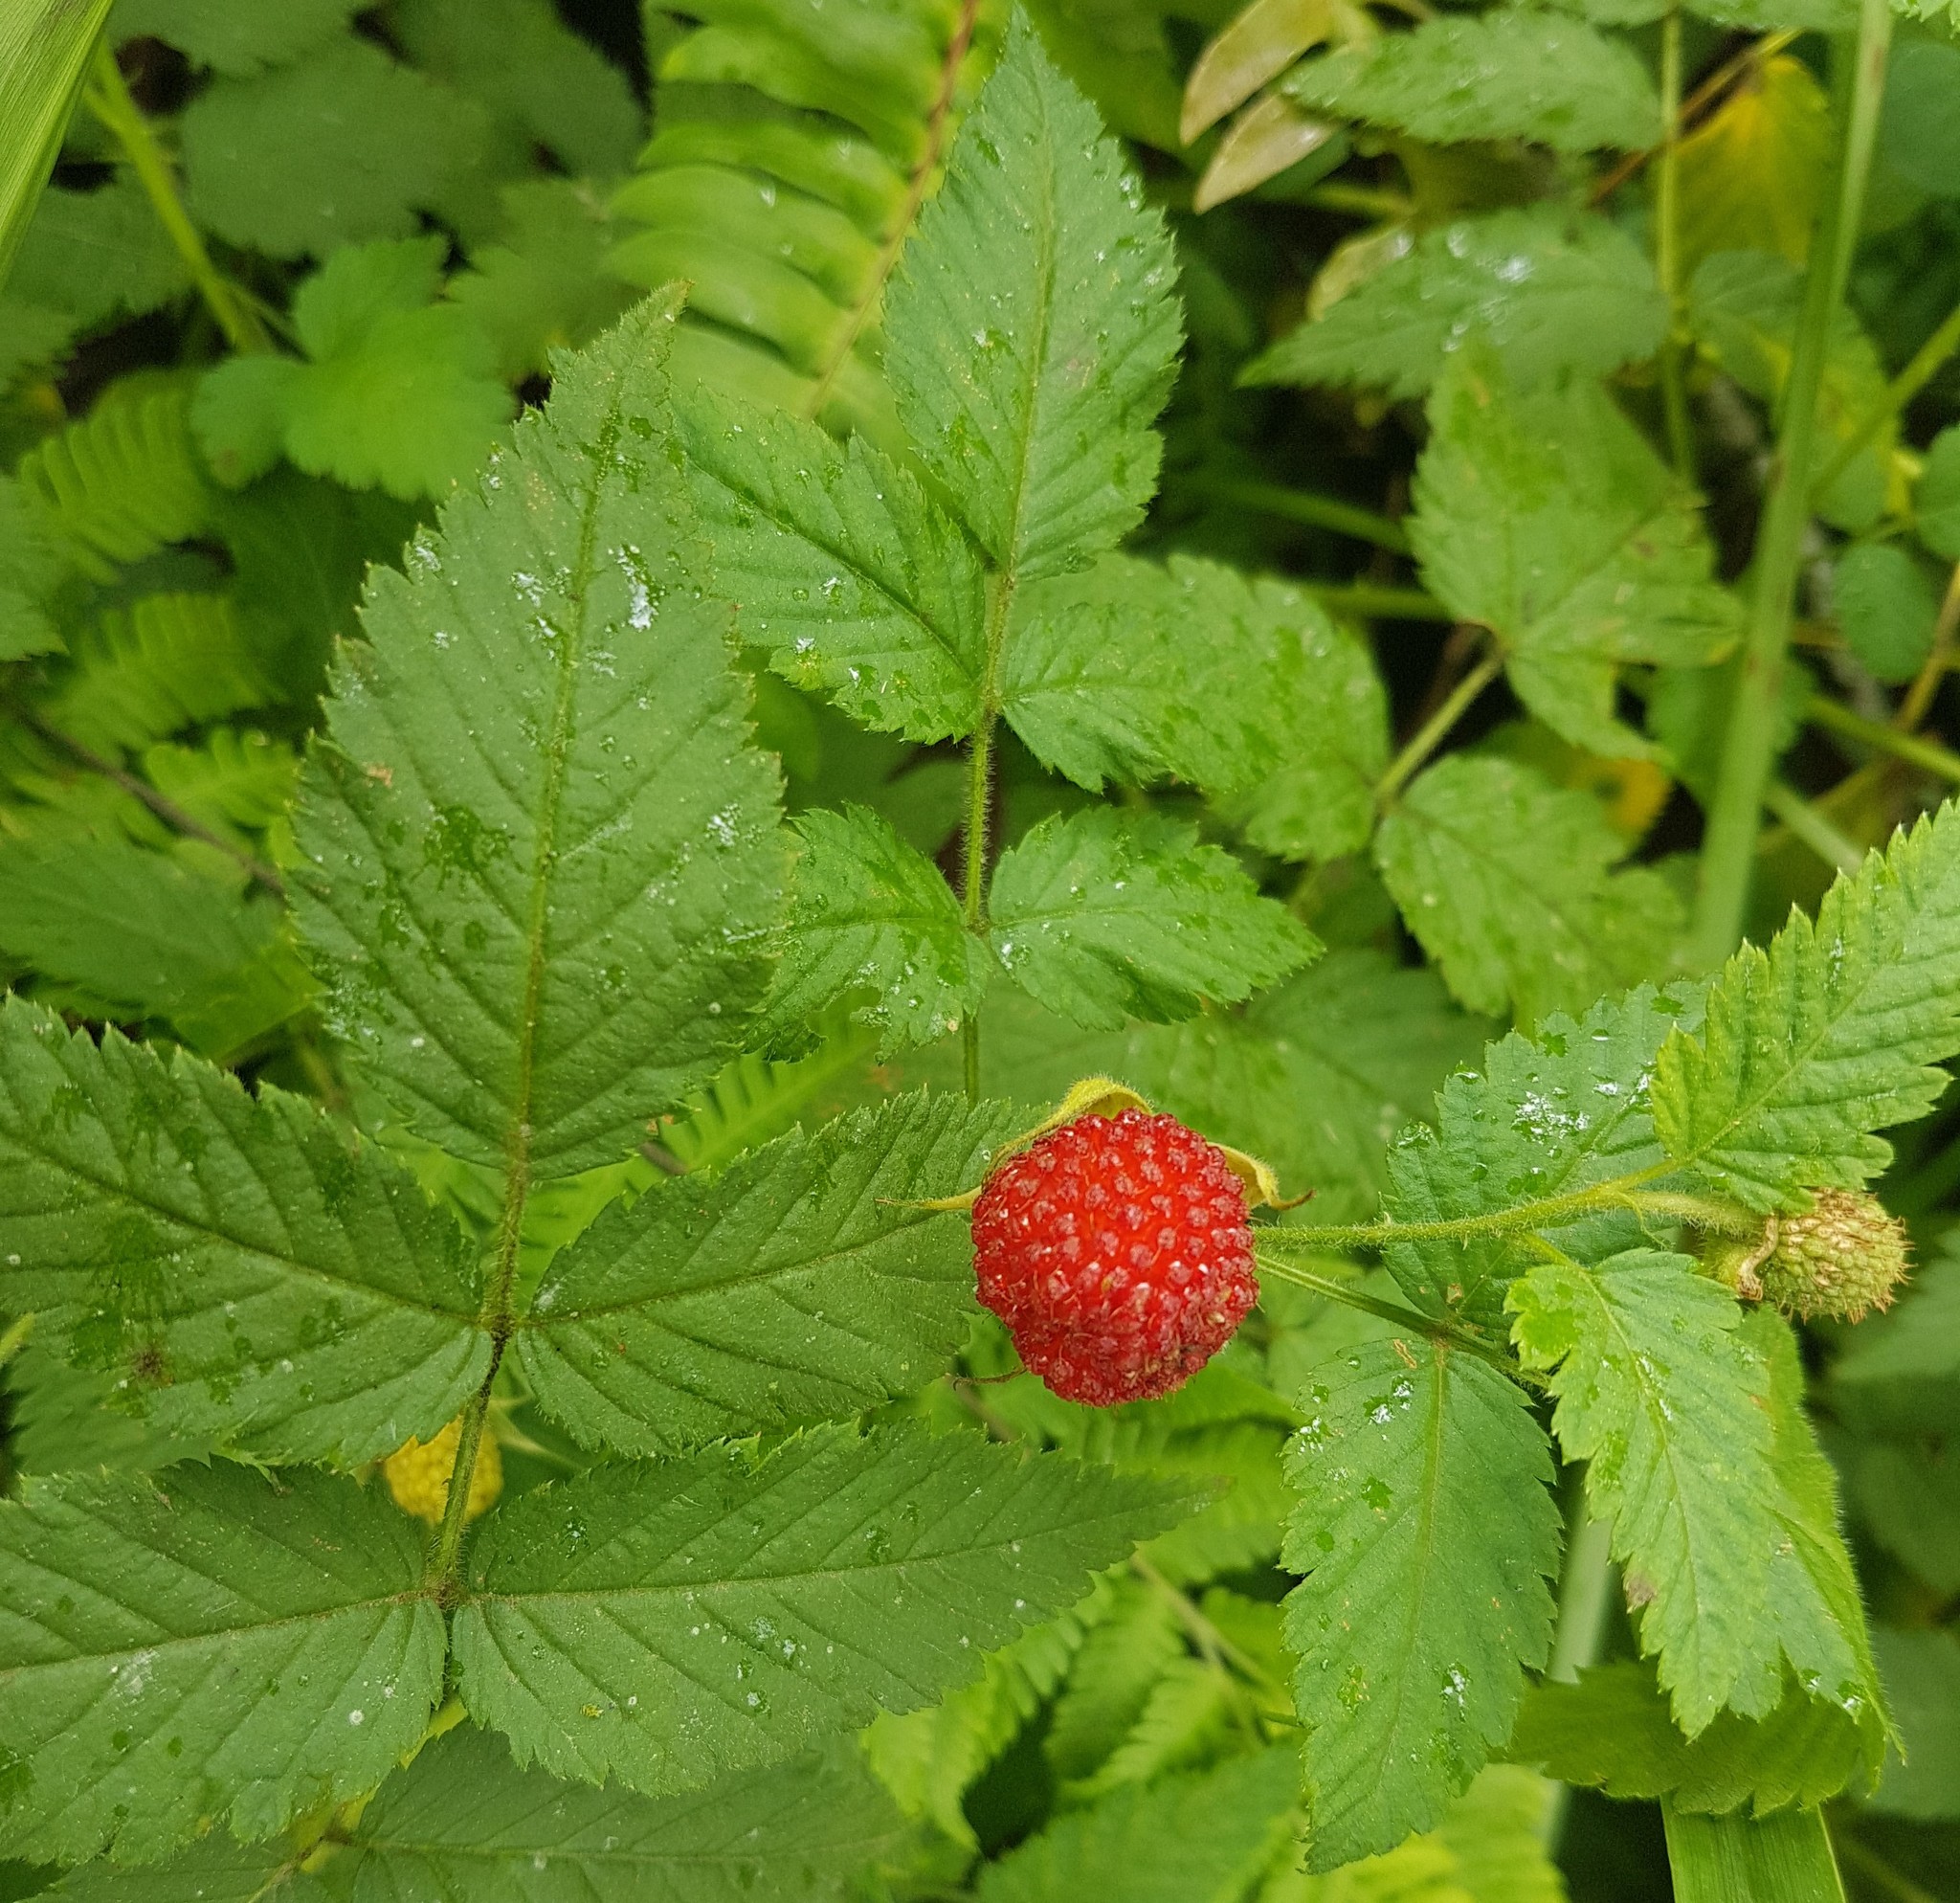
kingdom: Plantae
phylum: Tracheophyta
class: Magnoliopsida
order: Rosales
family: Rosaceae
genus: Rubus
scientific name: Rubus rosifolius
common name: Roseleaf raspberry
